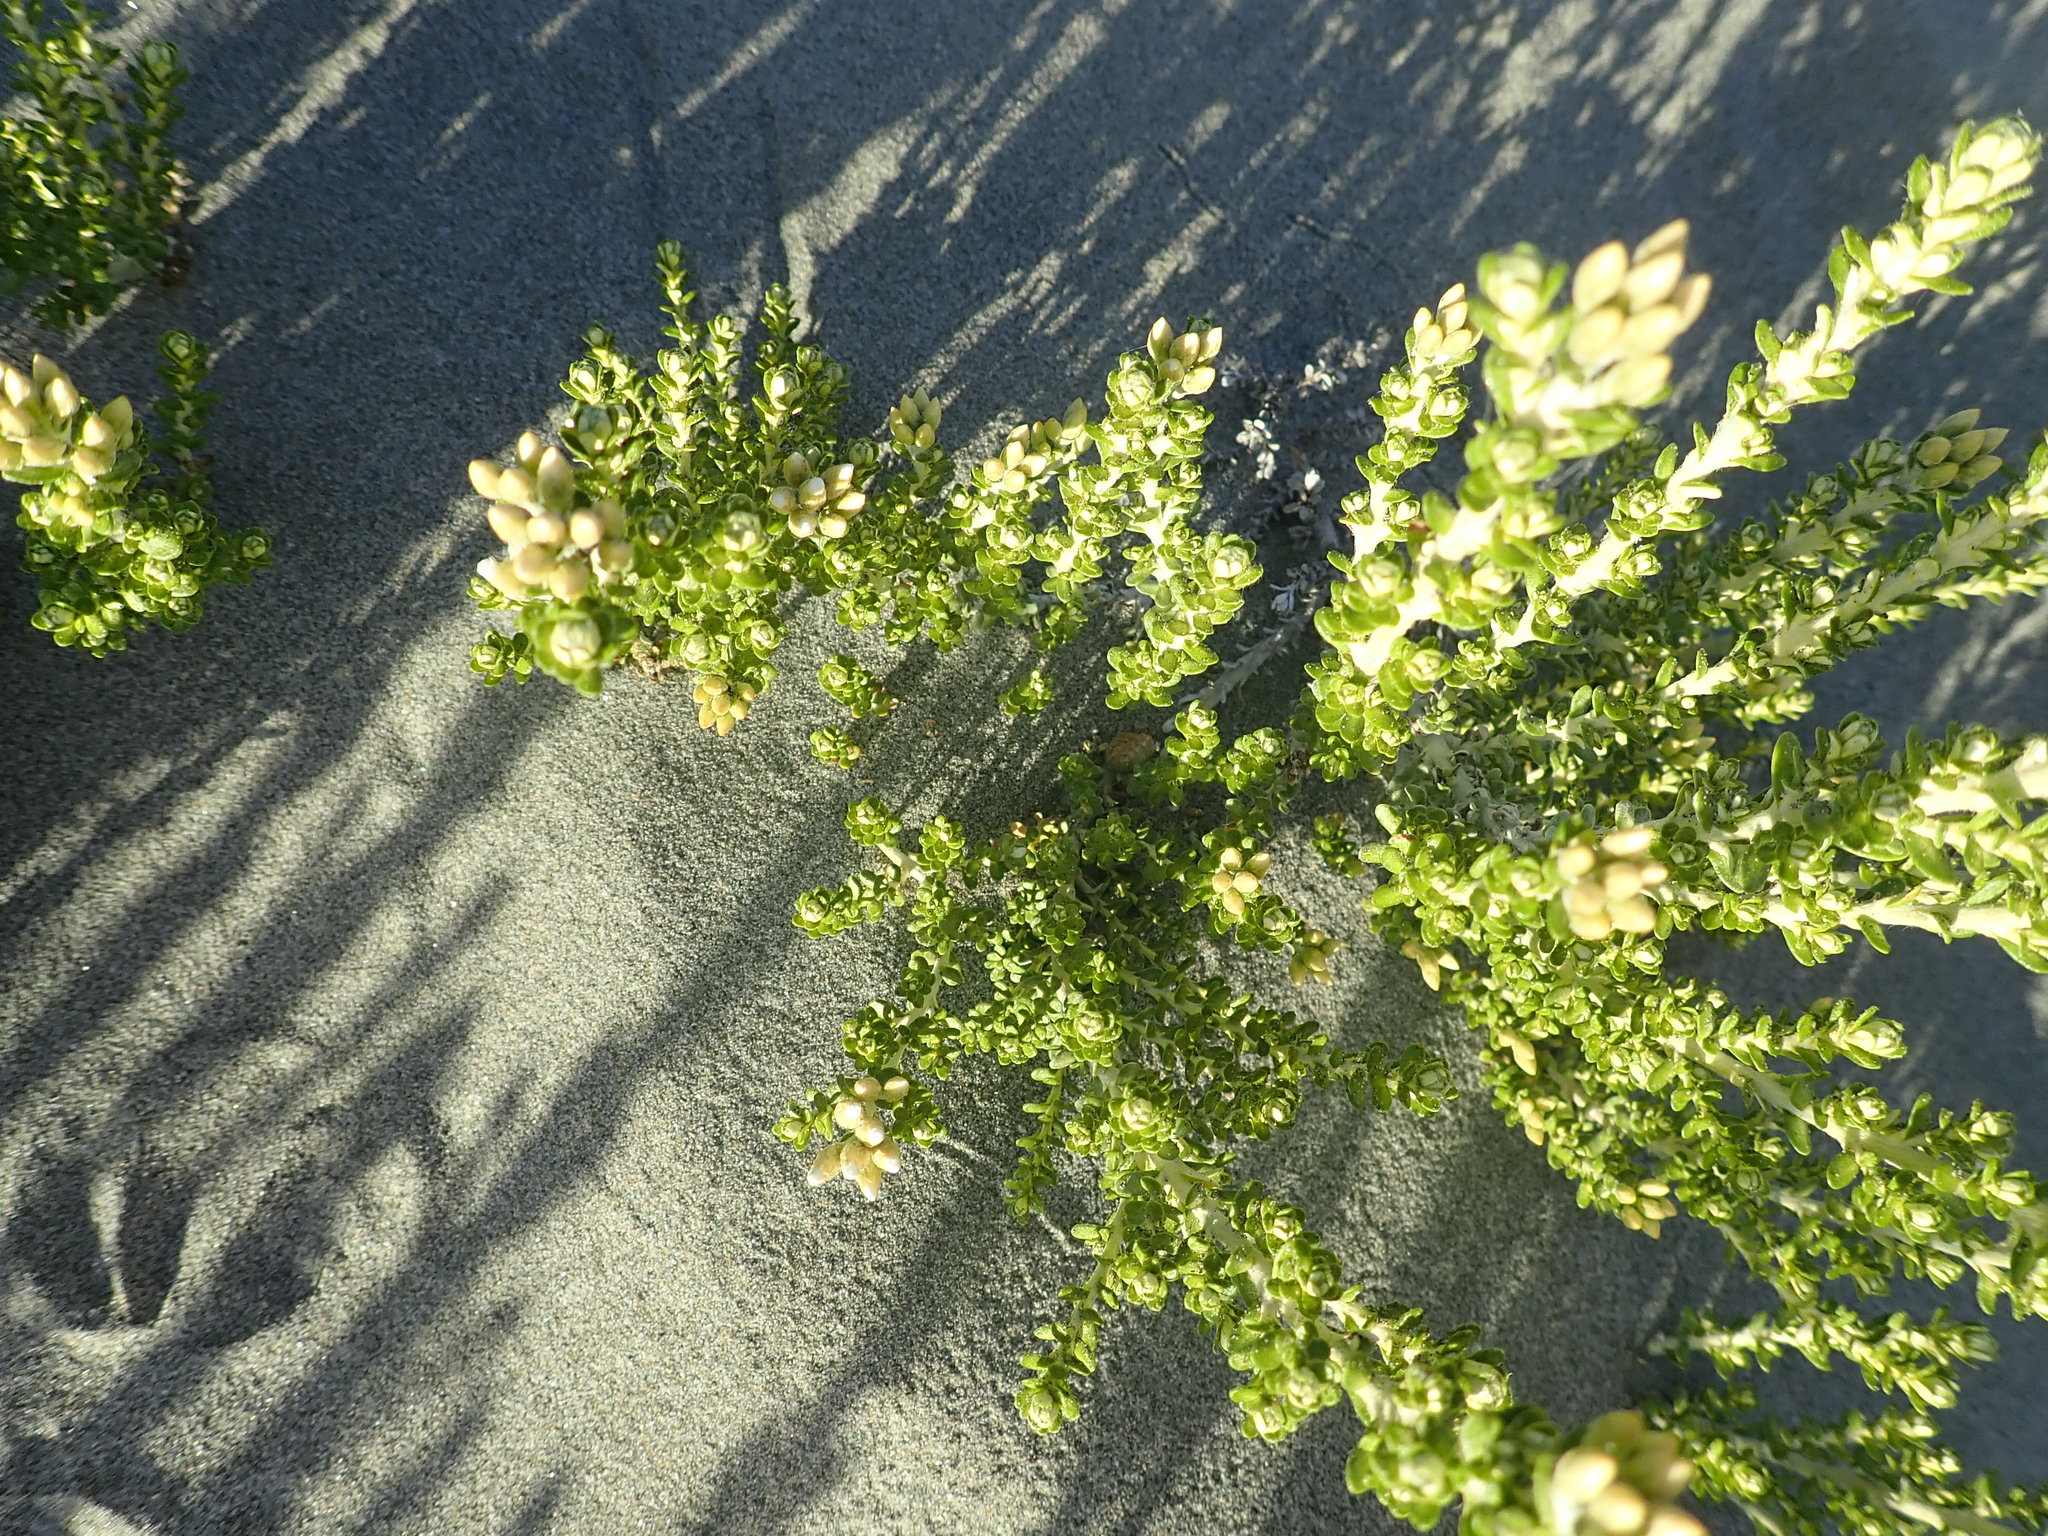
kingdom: Plantae
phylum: Tracheophyta
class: Magnoliopsida
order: Asterales
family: Asteraceae
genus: Ozothamnus
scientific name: Ozothamnus leptophyllus
